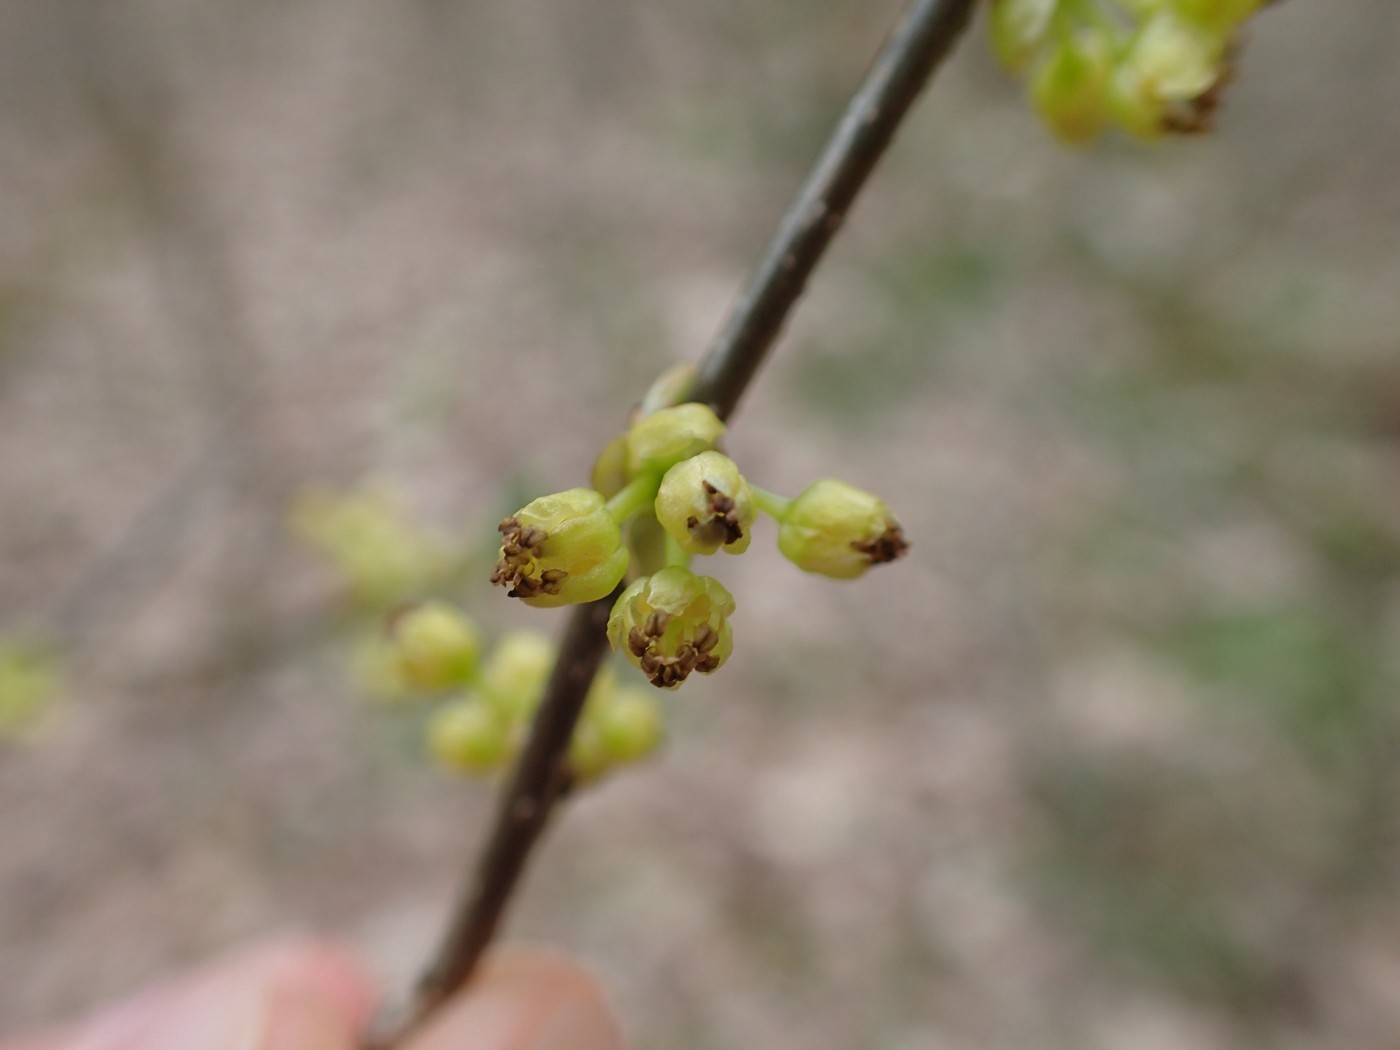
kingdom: Plantae
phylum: Tracheophyta
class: Magnoliopsida
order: Laurales
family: Lauraceae
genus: Lindera
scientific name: Lindera benzoin
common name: Spicebush
